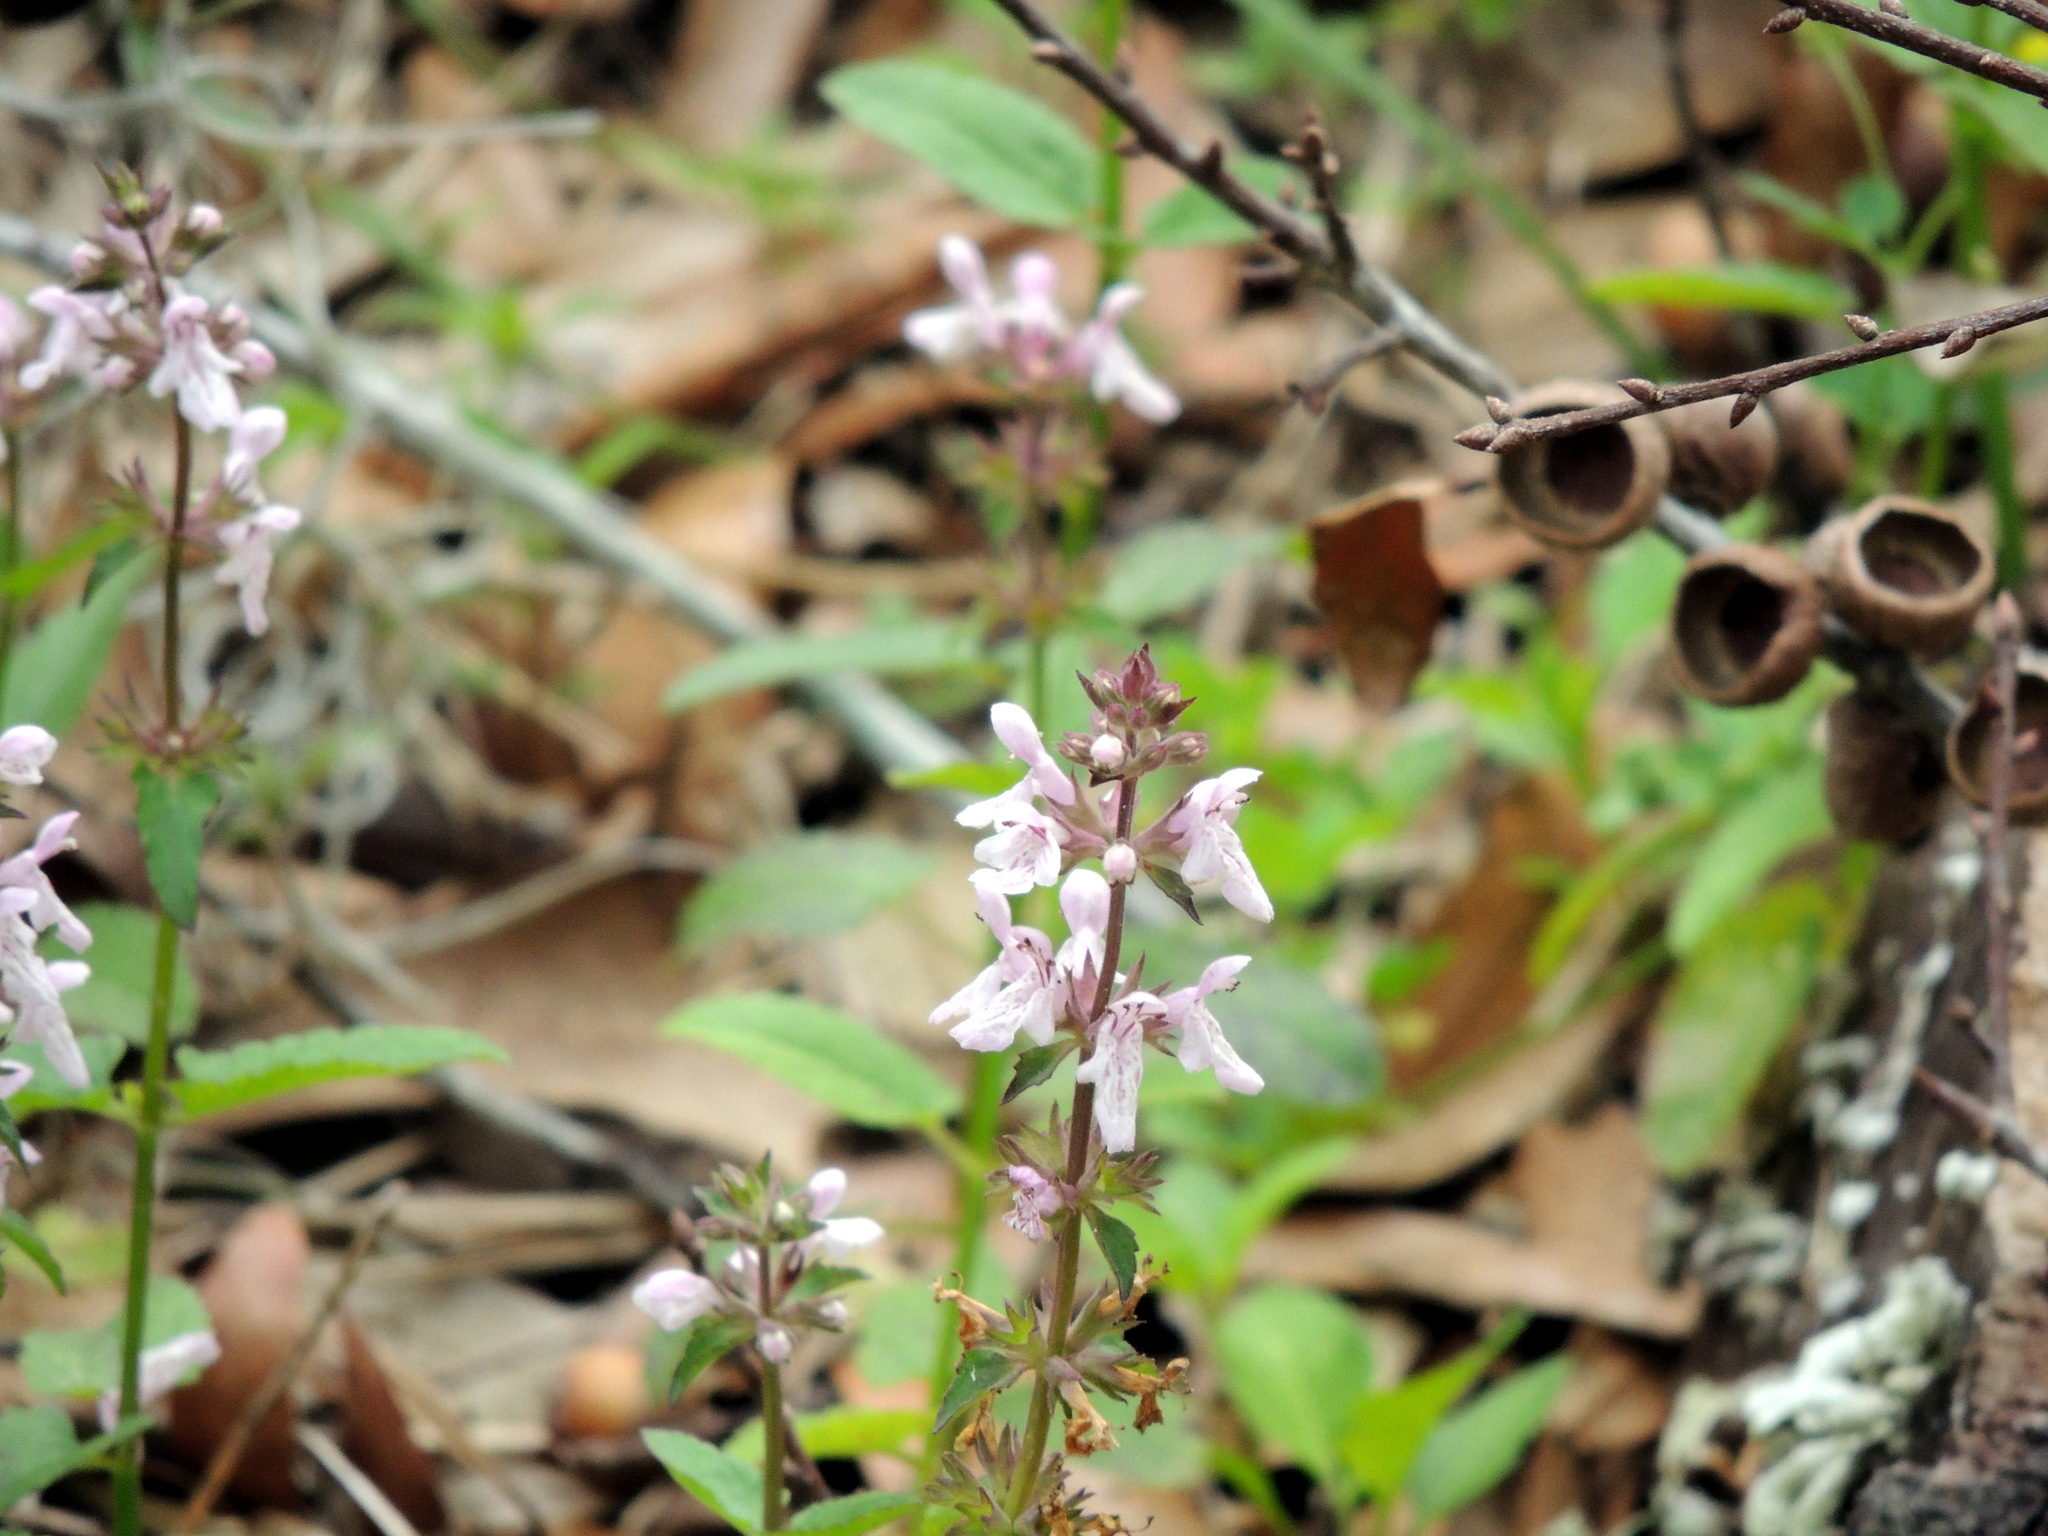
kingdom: Plantae
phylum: Tracheophyta
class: Magnoliopsida
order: Lamiales
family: Lamiaceae
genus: Stachys
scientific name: Stachys floridana
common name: Florida betony
